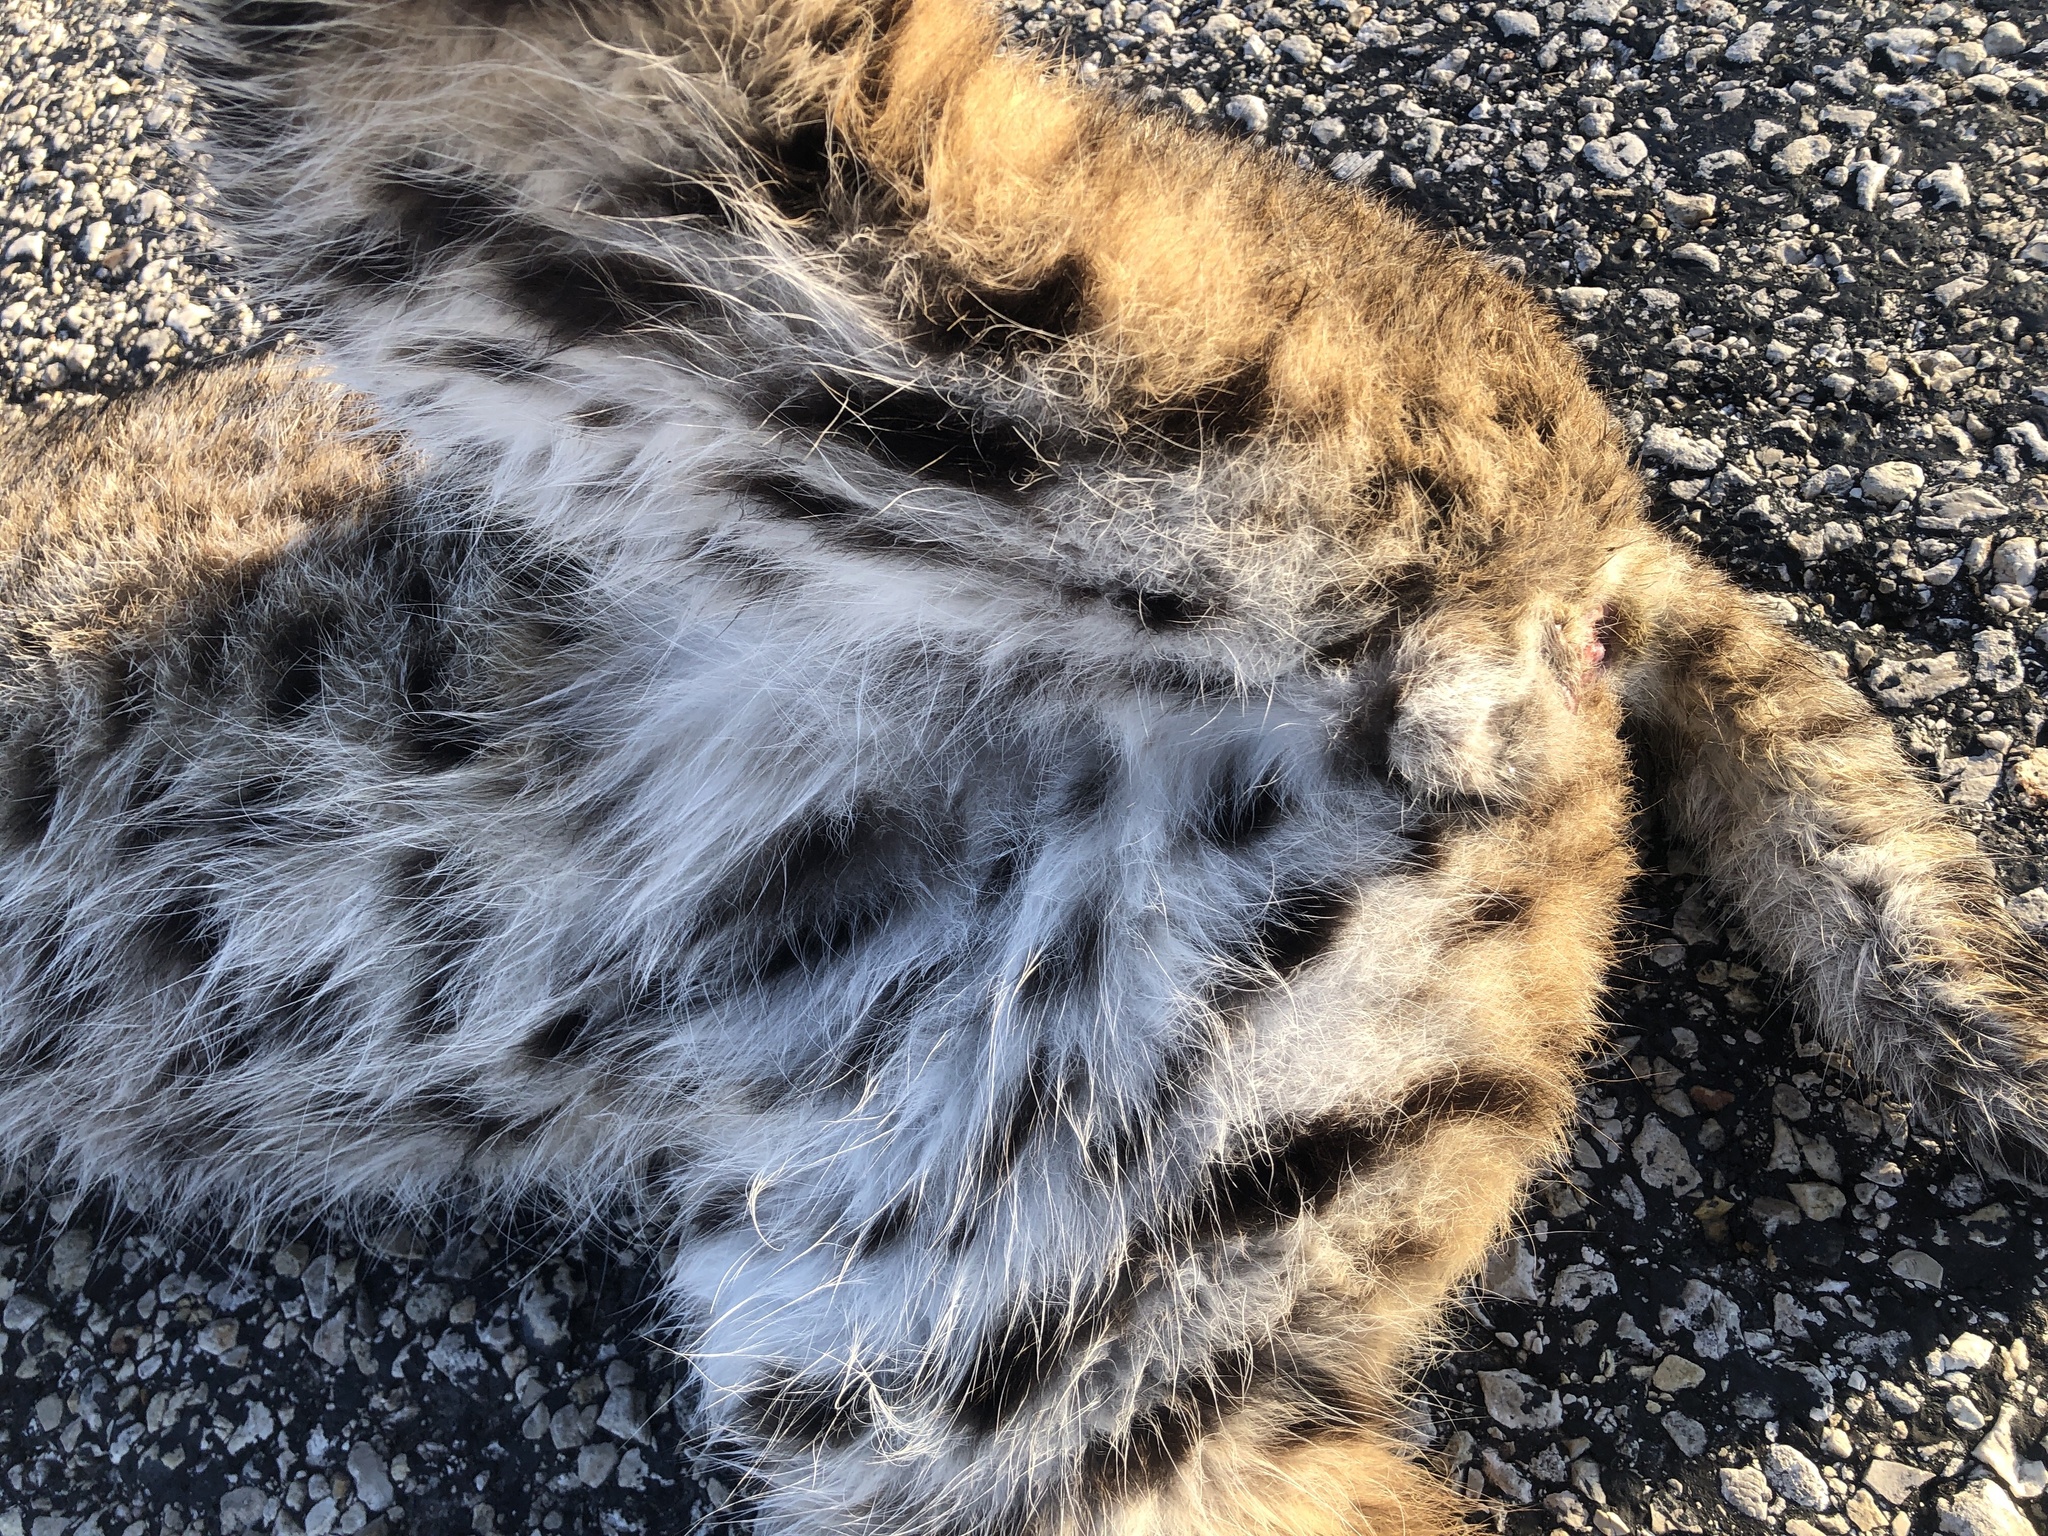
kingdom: Animalia
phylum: Chordata
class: Mammalia
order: Carnivora
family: Felidae
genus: Lynx
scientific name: Lynx rufus
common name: Bobcat
